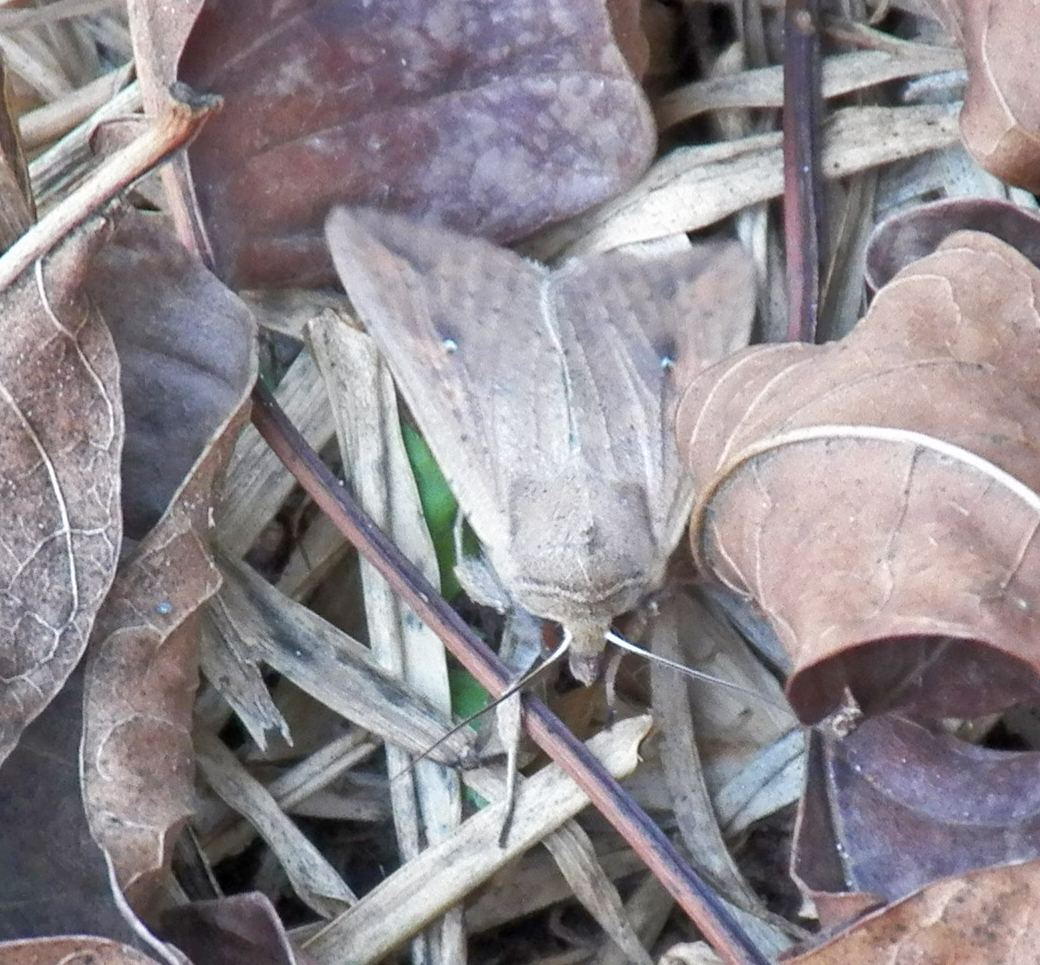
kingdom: Animalia
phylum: Arthropoda
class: Insecta
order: Lepidoptera
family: Noctuidae
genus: Mythimna
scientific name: Mythimna unipuncta
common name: White-speck
